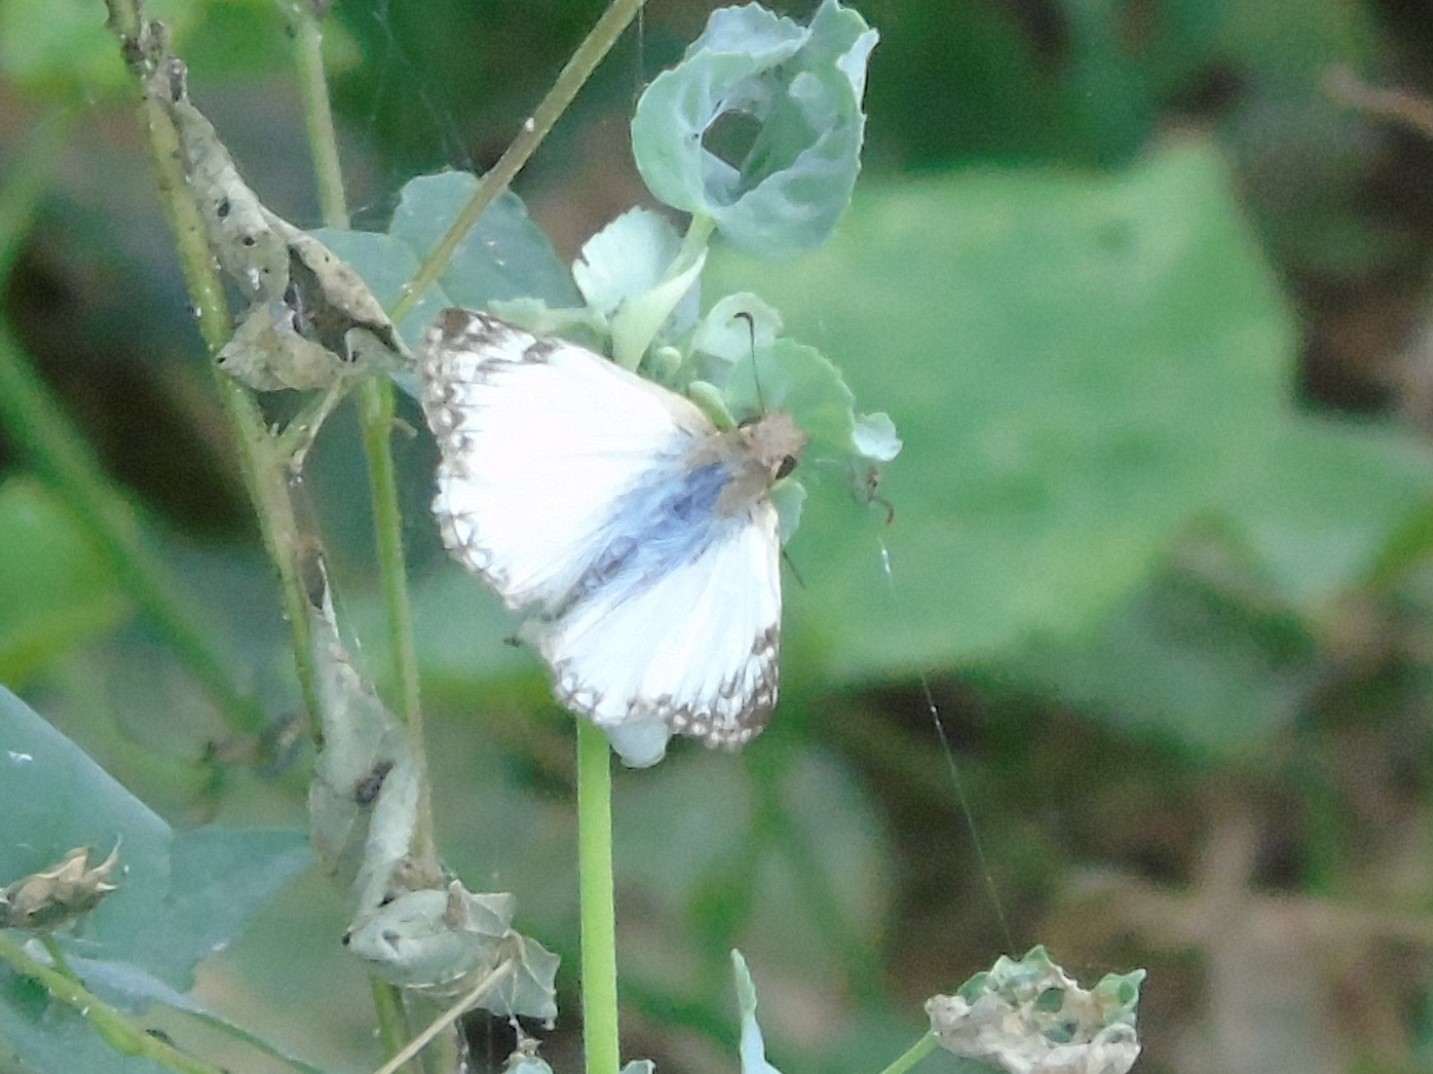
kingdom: Animalia
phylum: Arthropoda
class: Insecta
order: Lepidoptera
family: Hesperiidae
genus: Heliopetes
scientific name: Heliopetes laviana
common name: Laviana white-skipper
